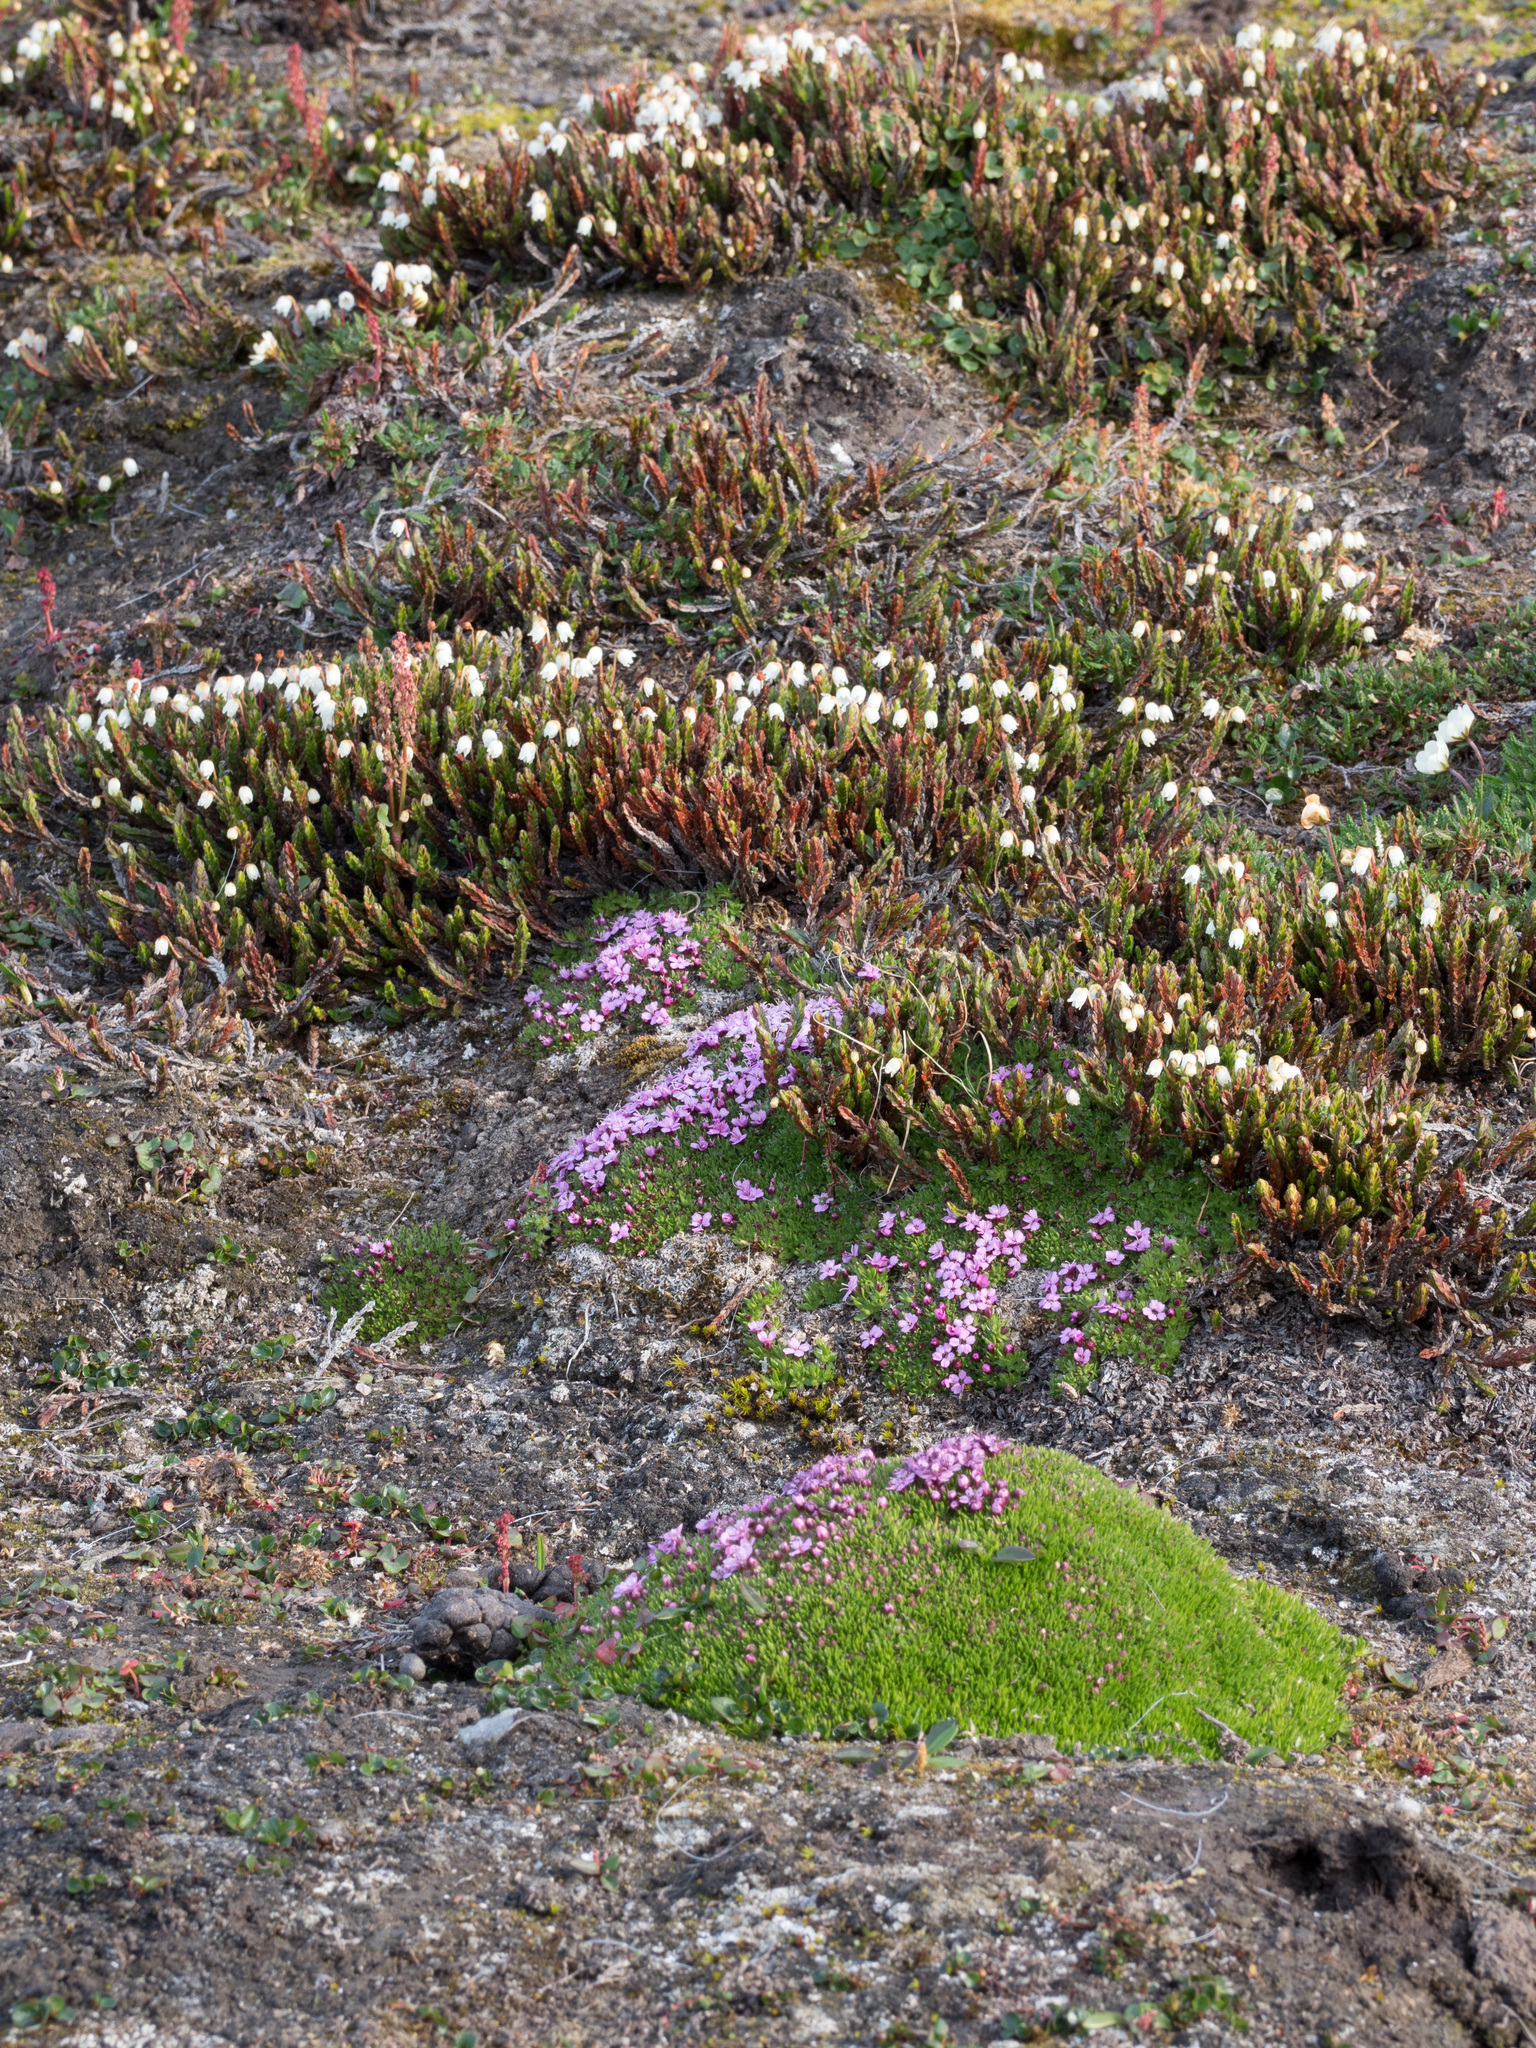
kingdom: Plantae
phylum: Tracheophyta
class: Magnoliopsida
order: Caryophyllales
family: Caryophyllaceae
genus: Silene
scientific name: Silene acaulis
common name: Moss campion
